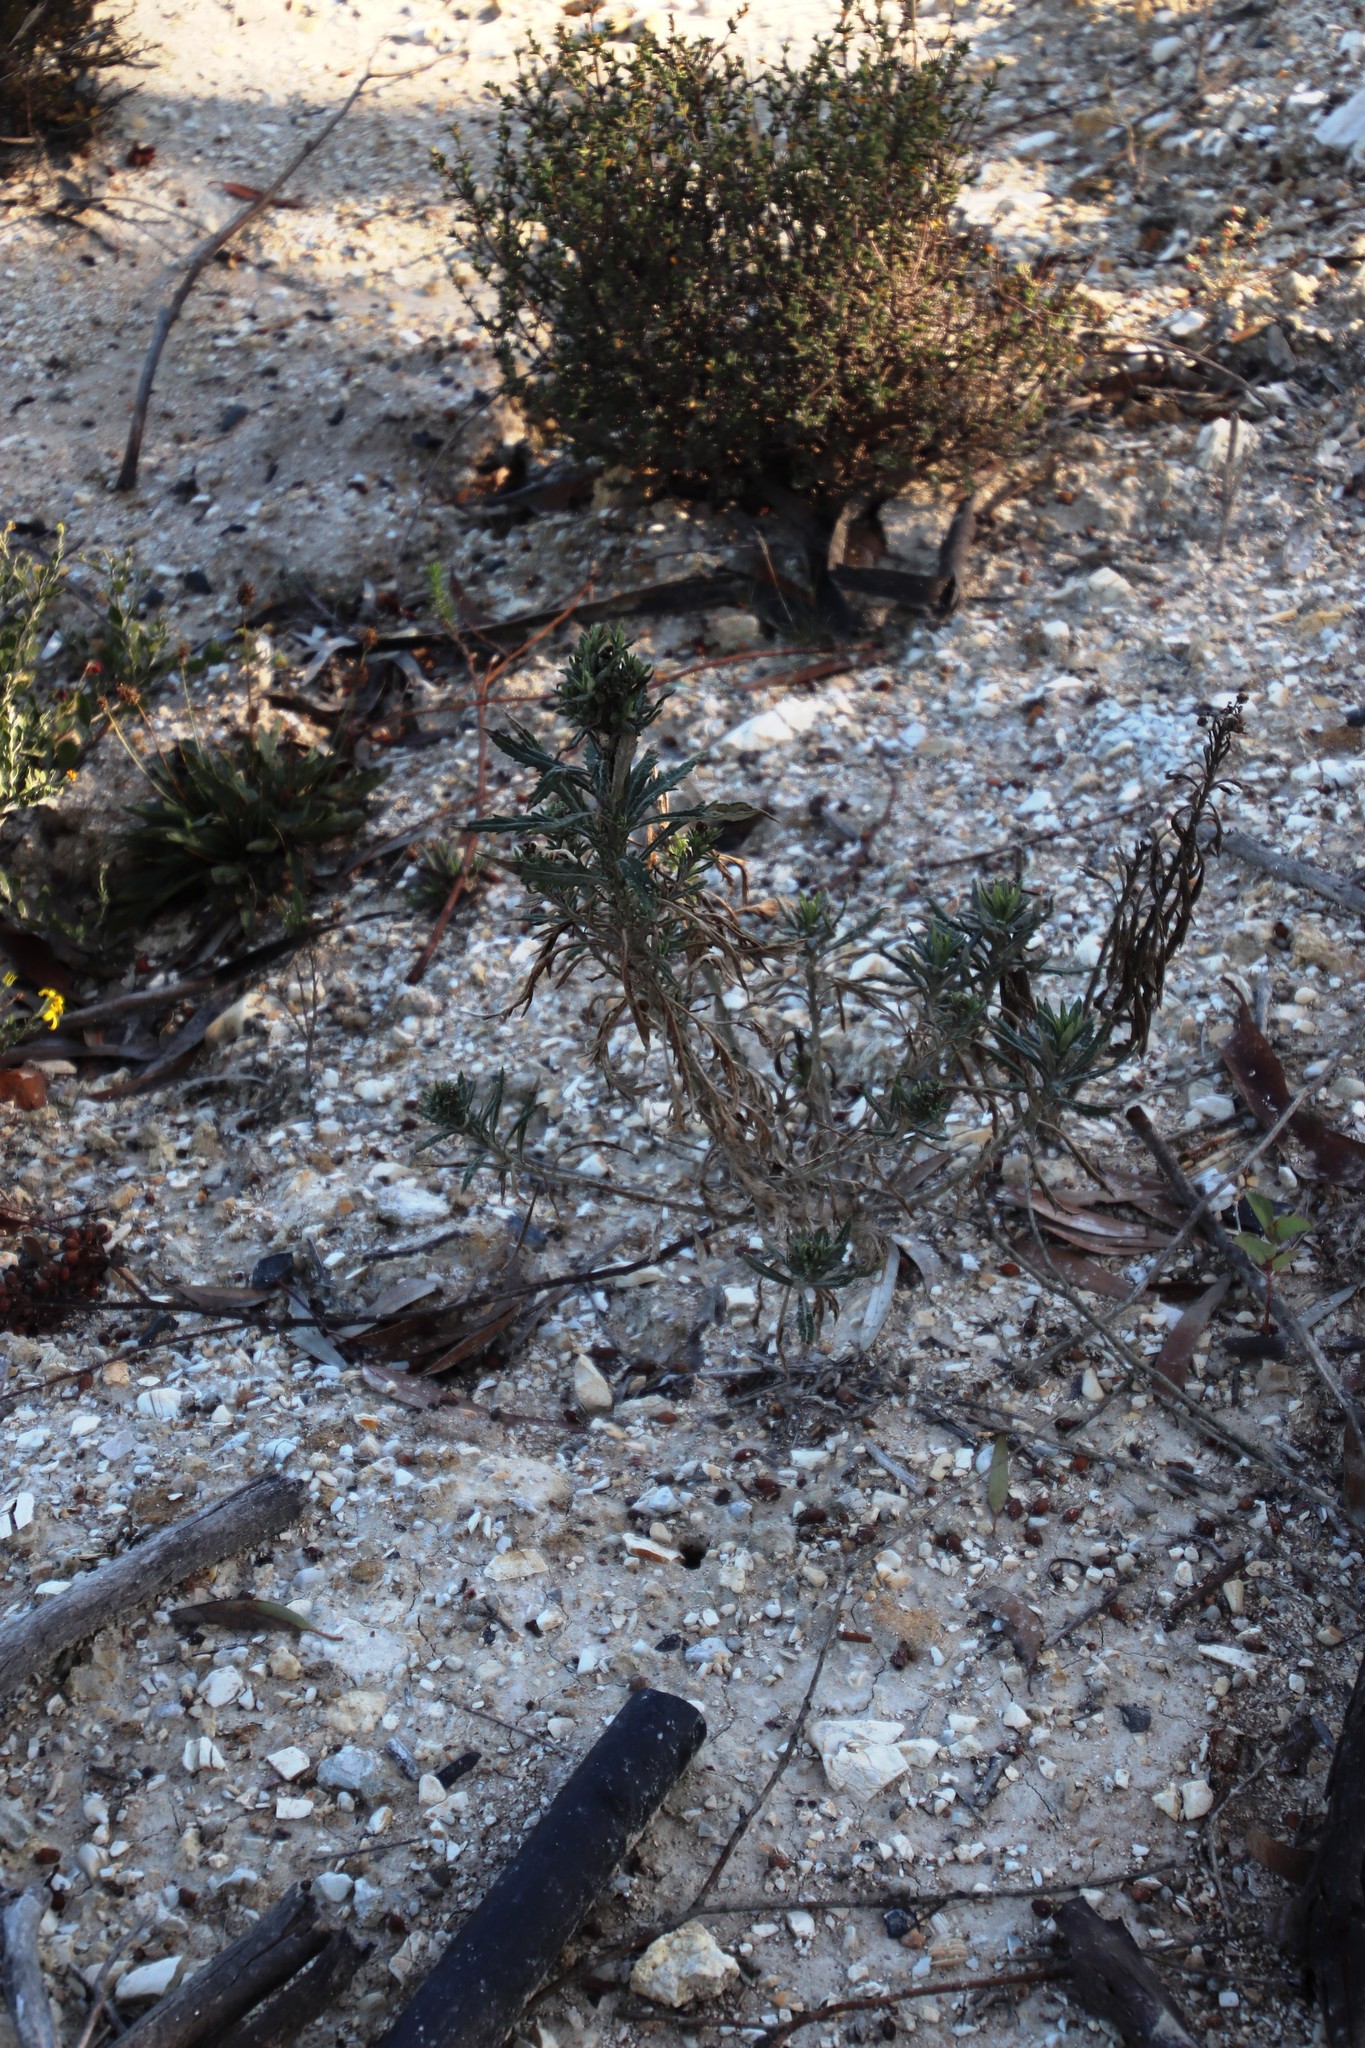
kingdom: Plantae
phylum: Tracheophyta
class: Magnoliopsida
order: Asterales
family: Asteraceae
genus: Senecio
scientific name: Senecio pterophorus
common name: Shoddy ragwort
